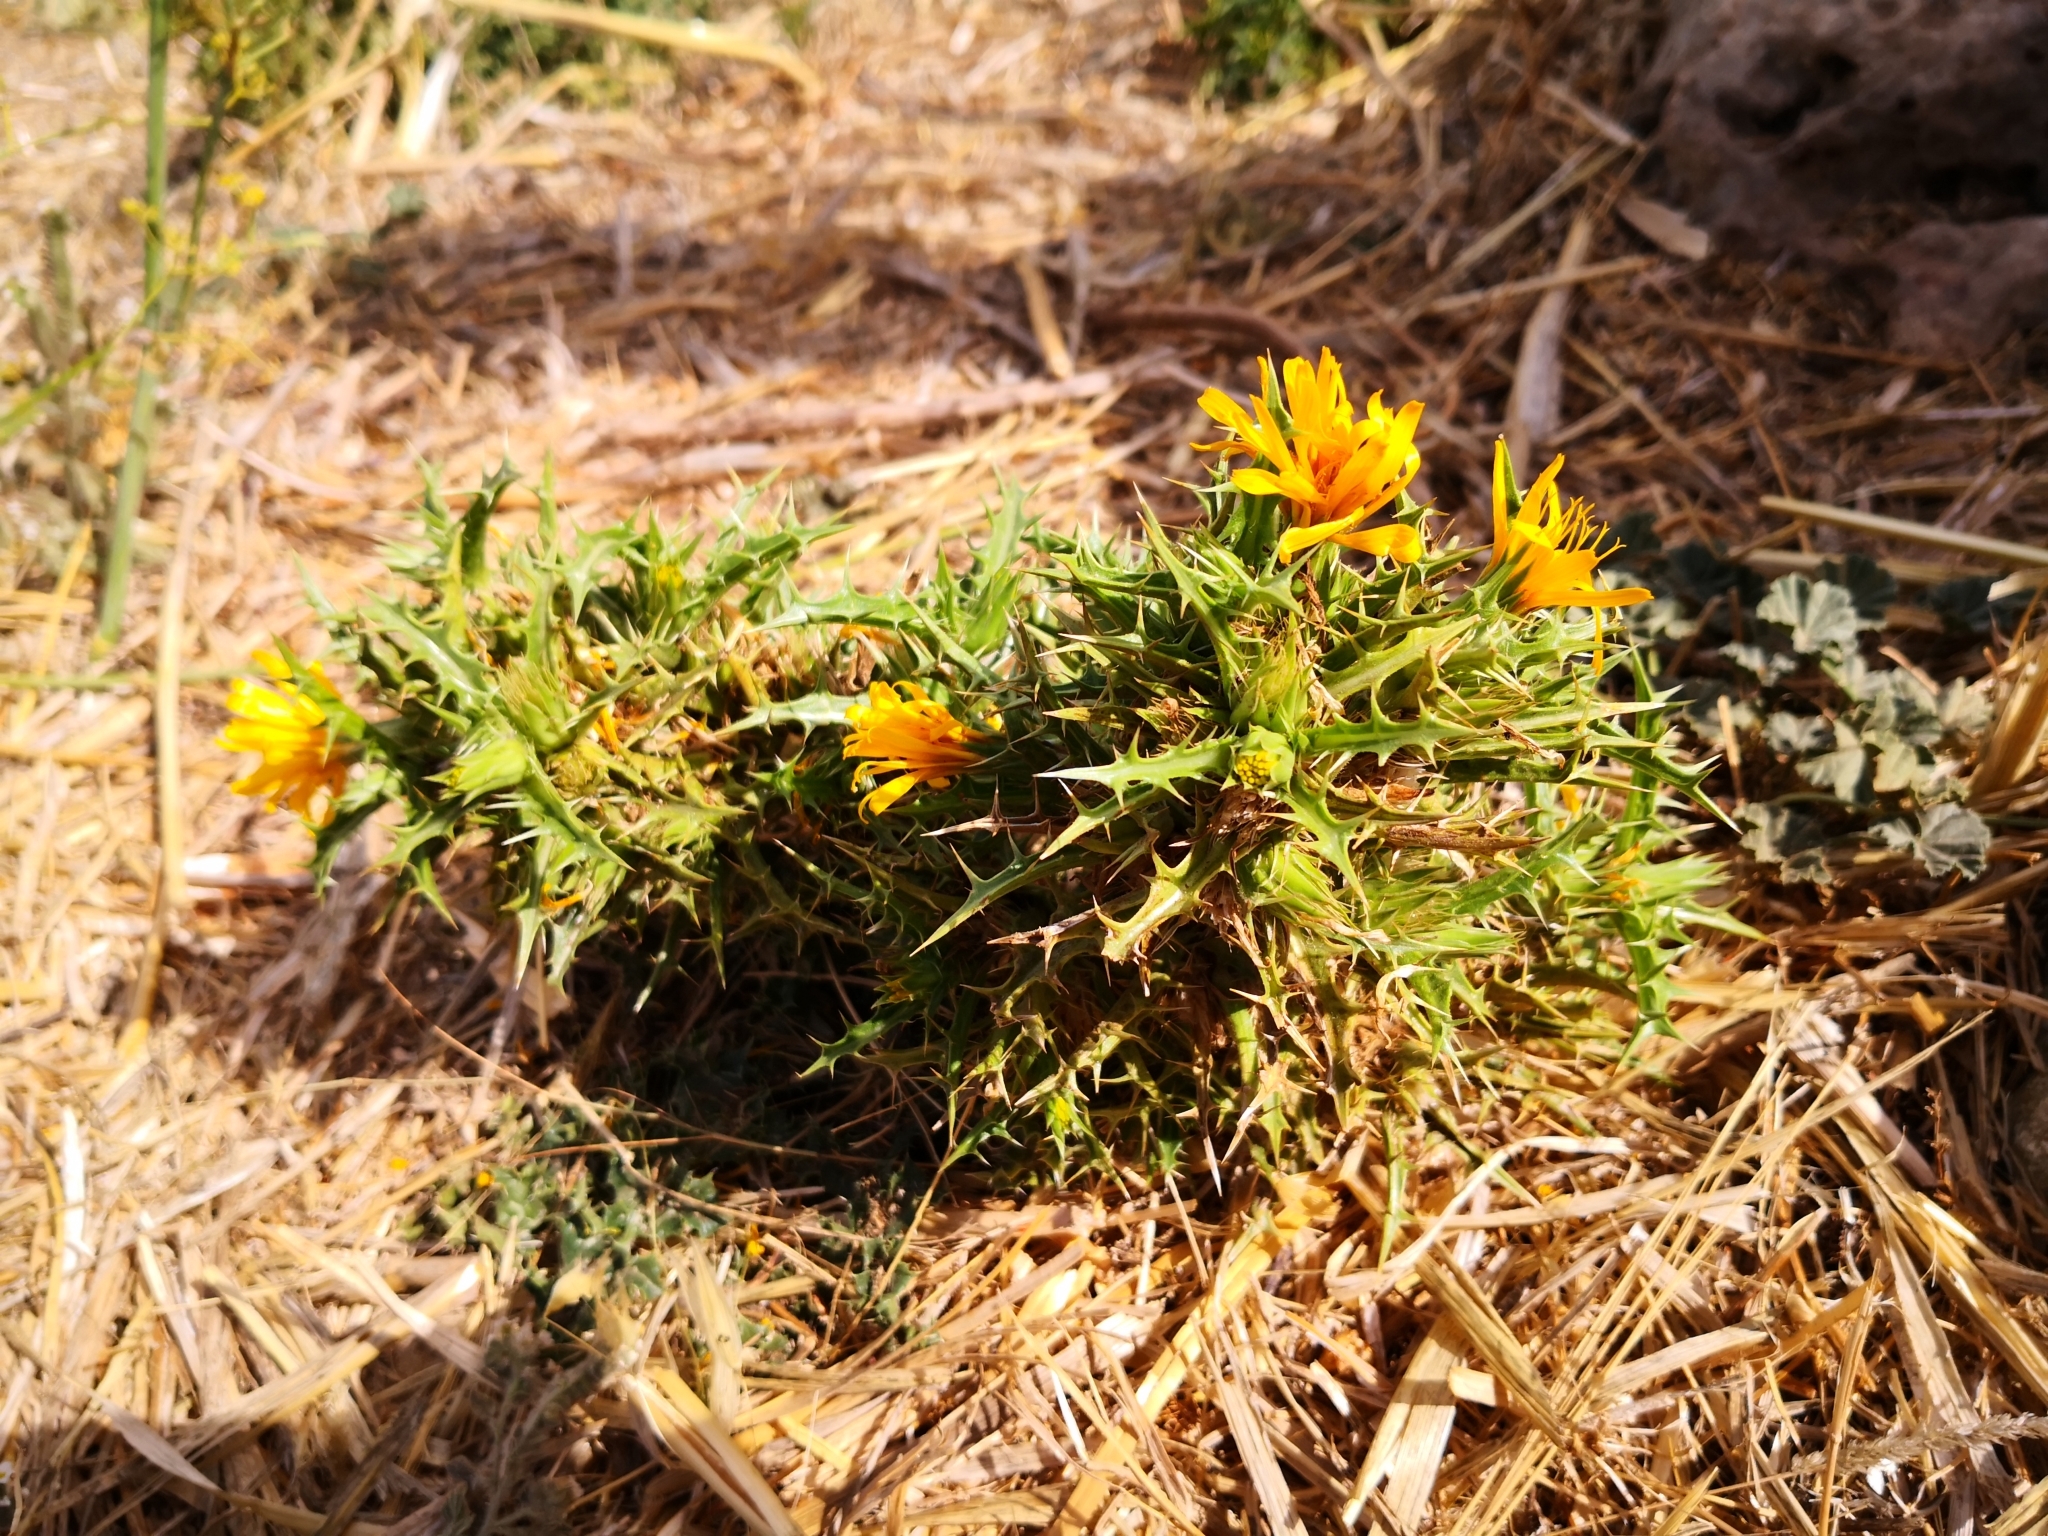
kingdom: Plantae
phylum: Tracheophyta
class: Magnoliopsida
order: Asterales
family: Asteraceae
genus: Scolymus
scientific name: Scolymus hispanicus
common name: Golden thistle
